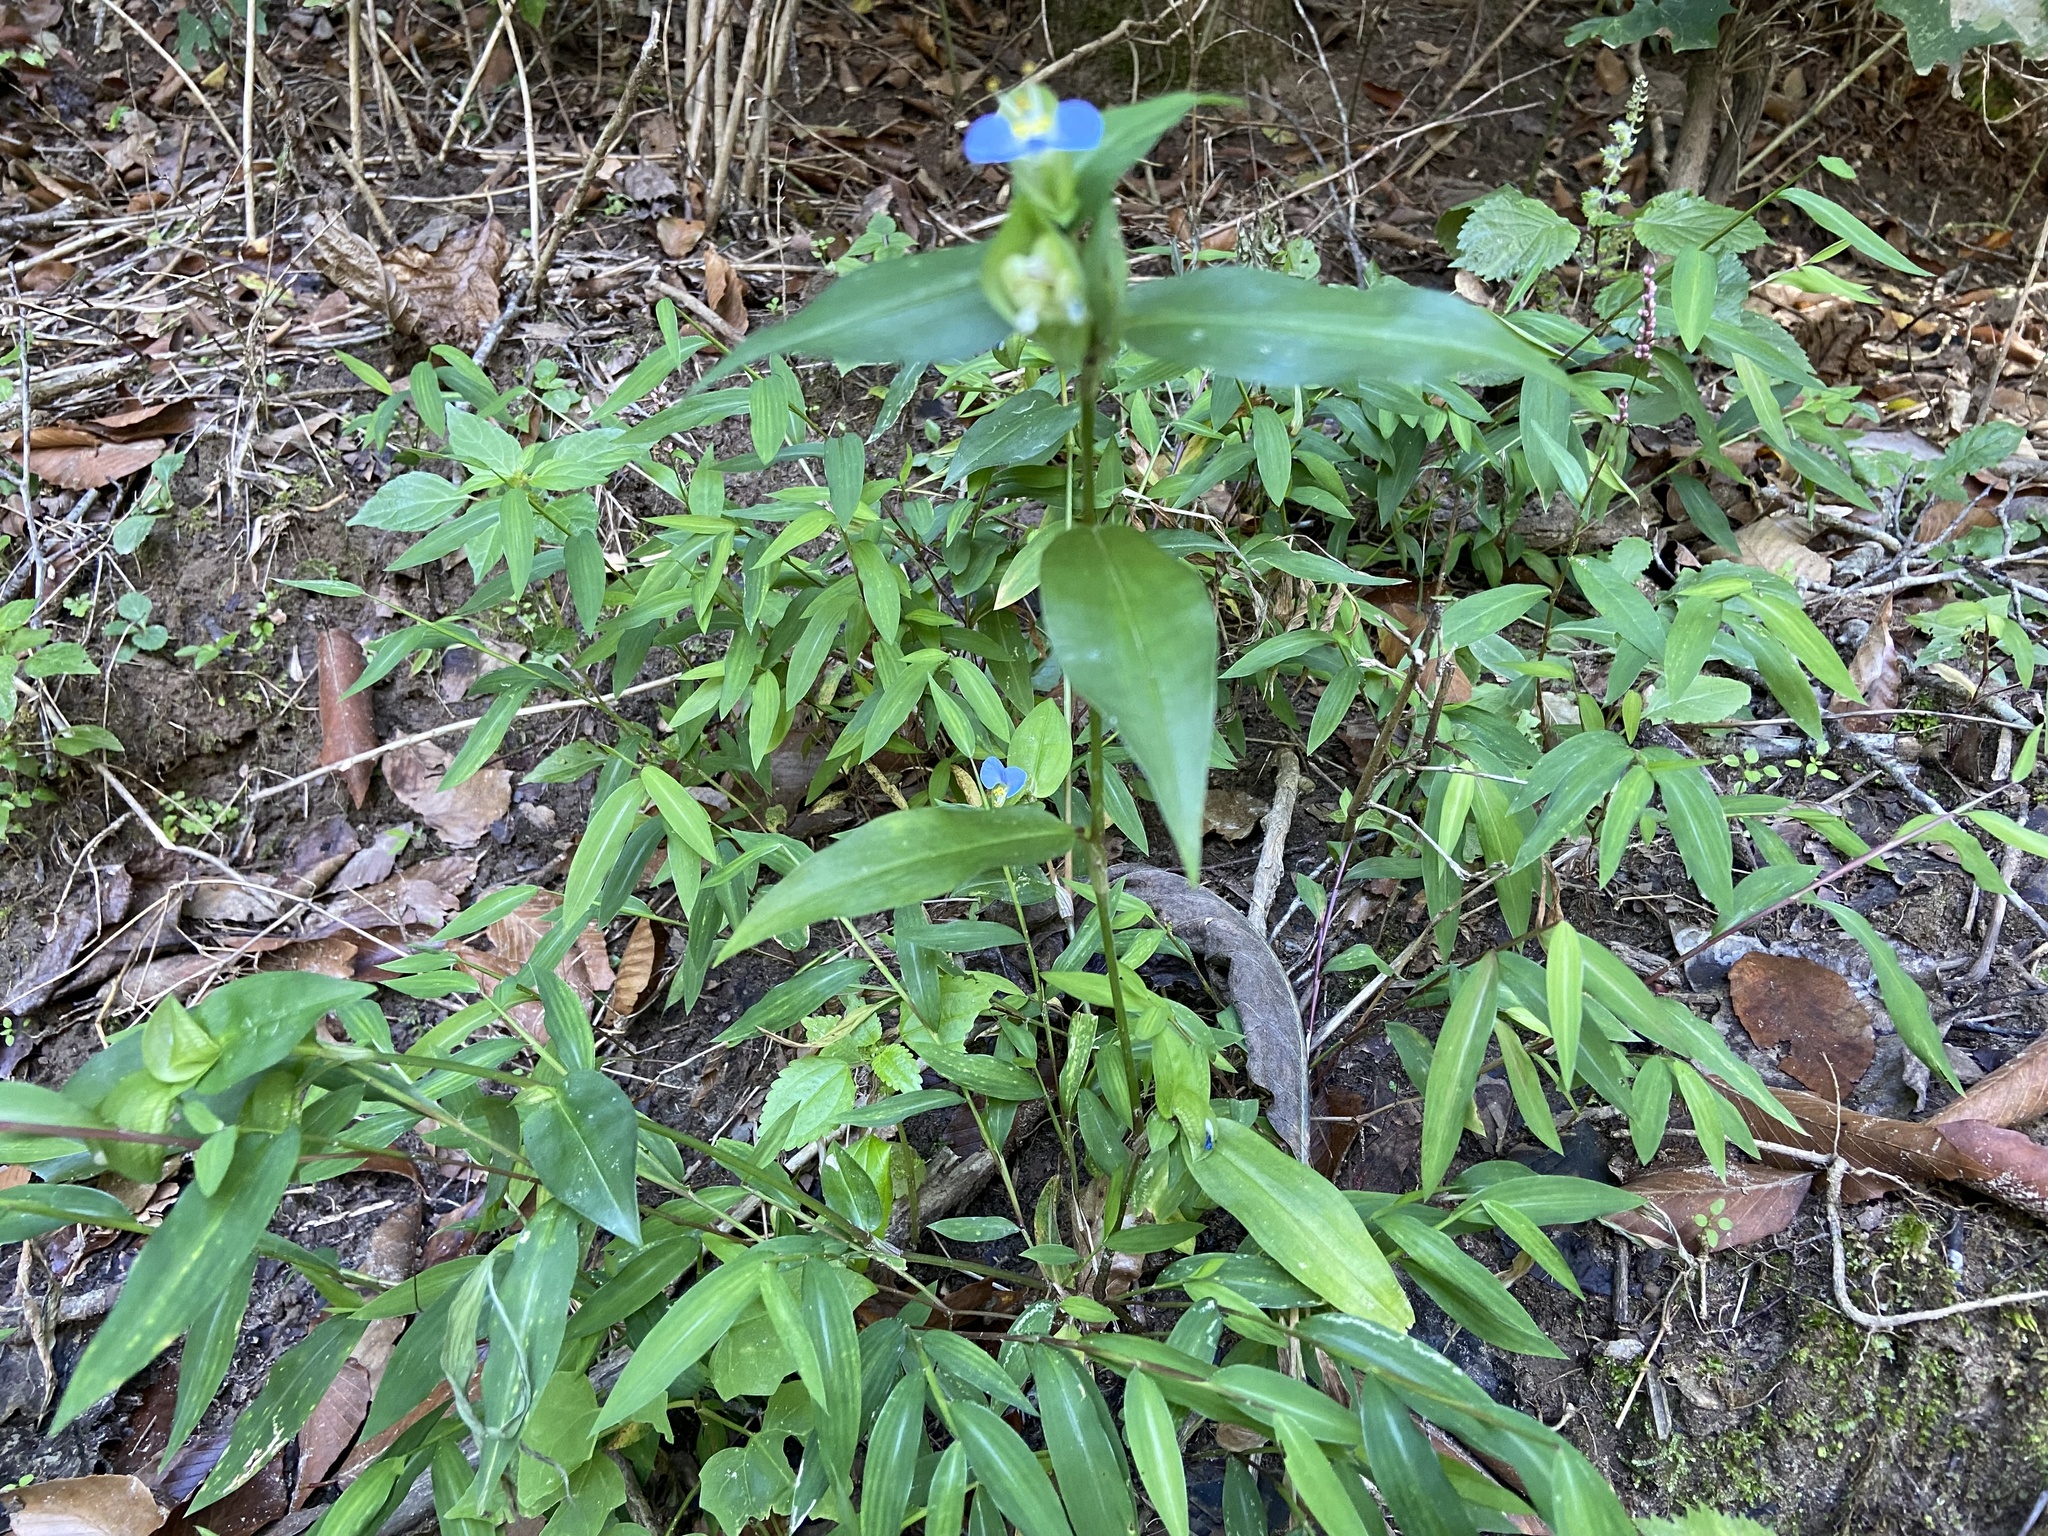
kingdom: Plantae
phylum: Tracheophyta
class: Liliopsida
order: Commelinales
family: Commelinaceae
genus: Commelina
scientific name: Commelina communis
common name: Asiatic dayflower
